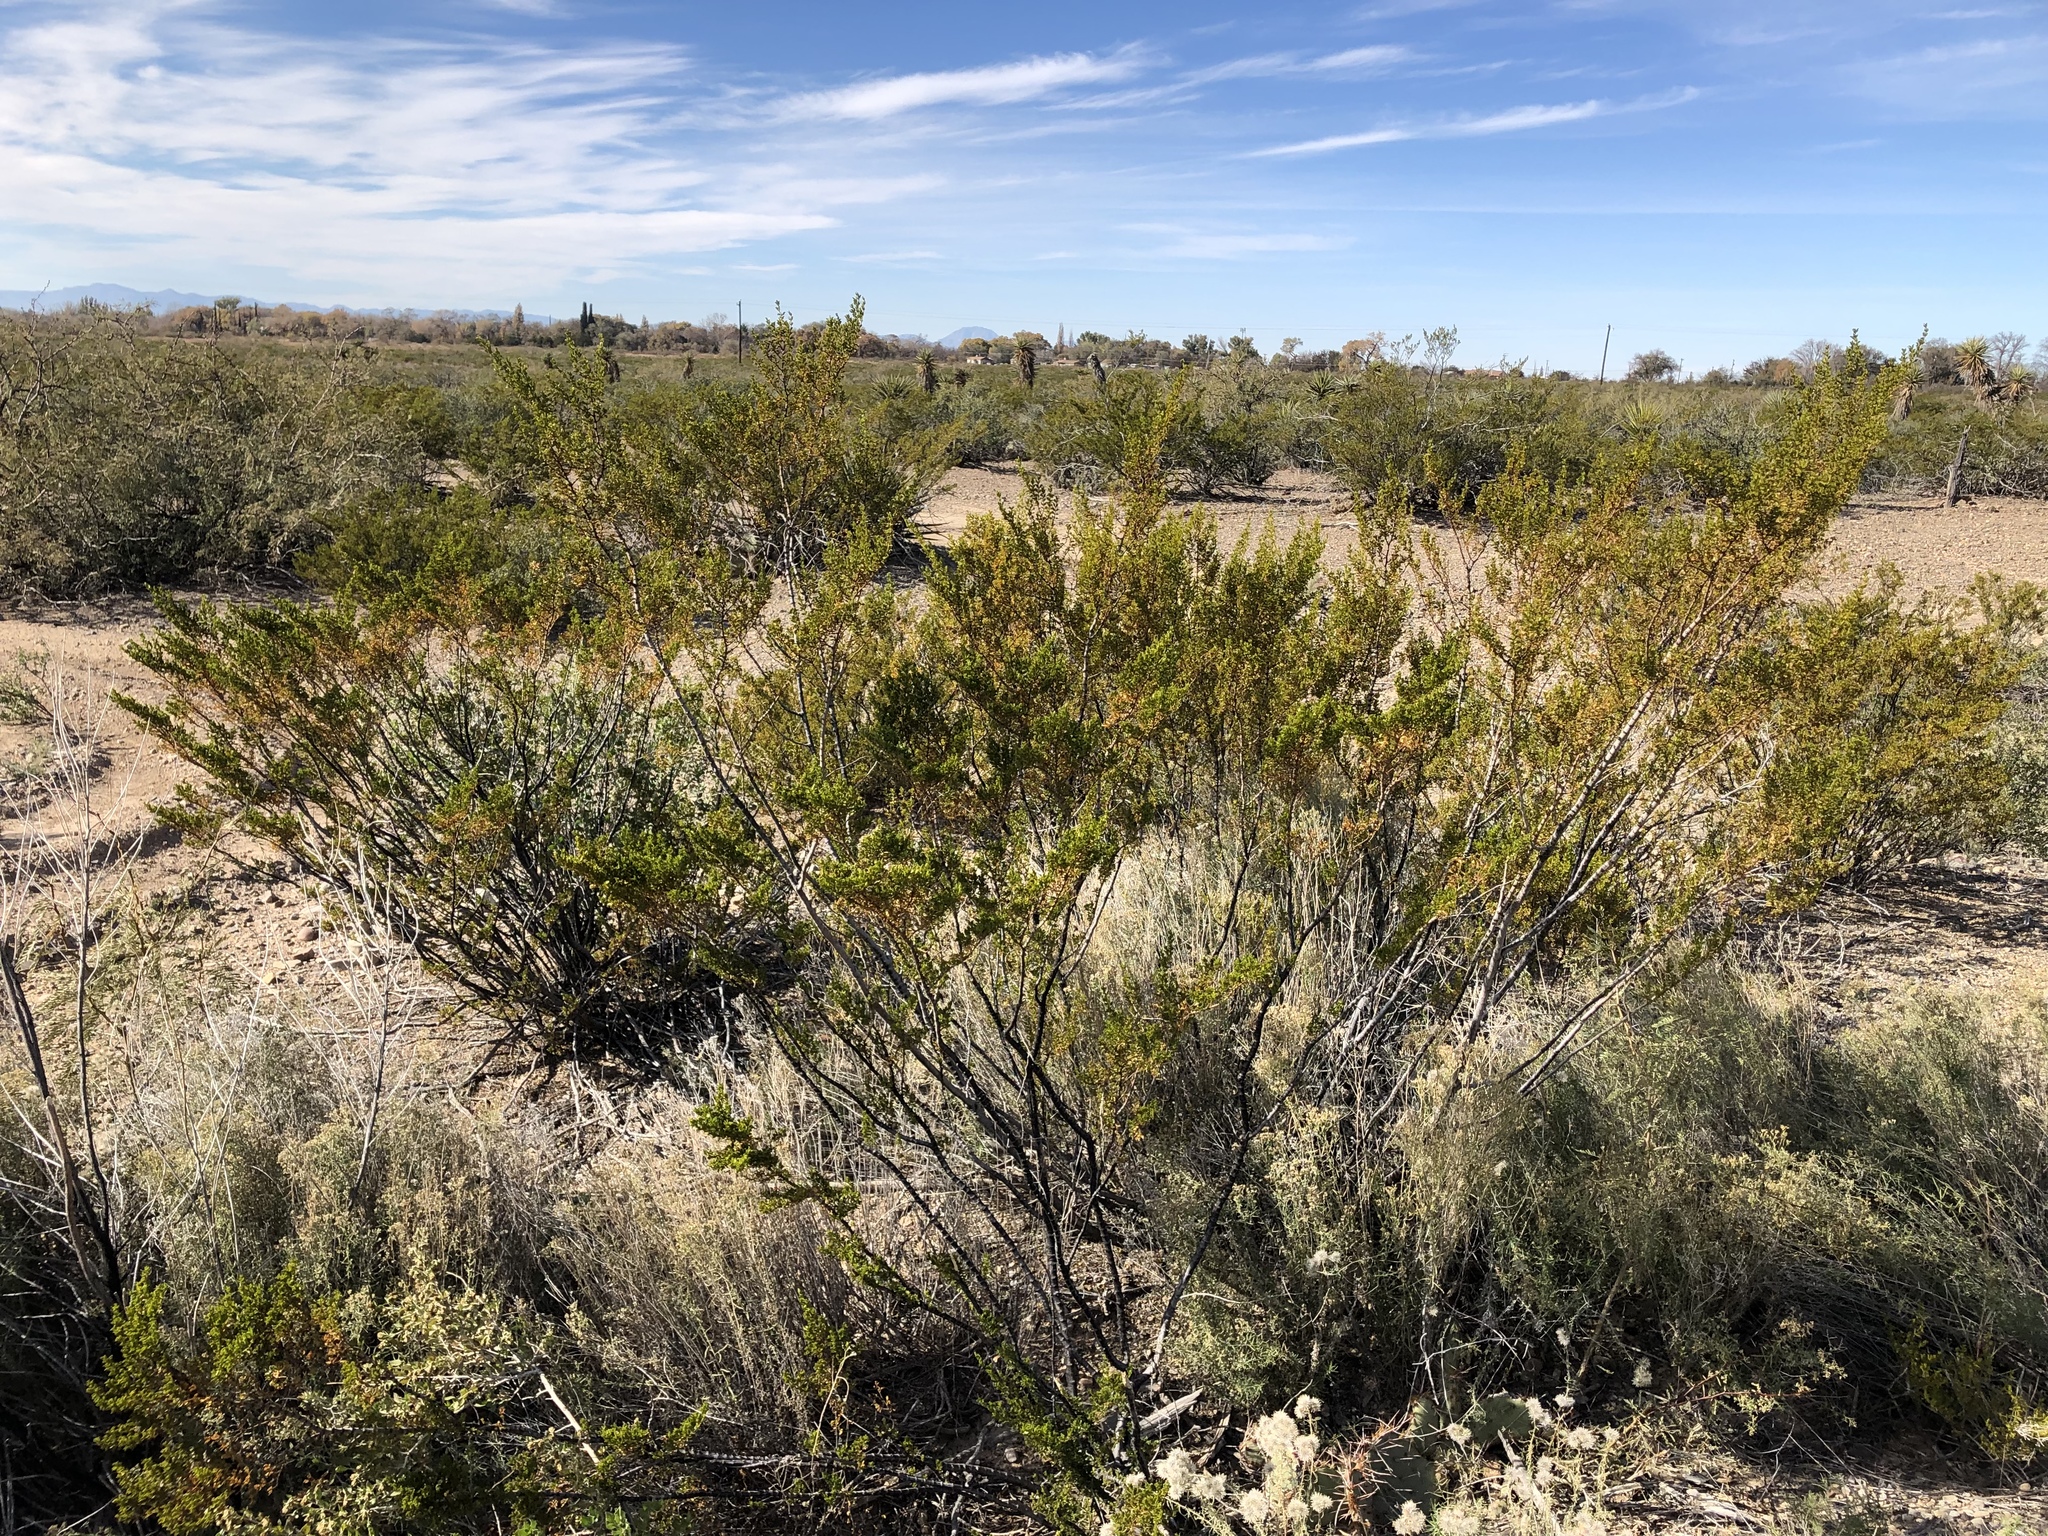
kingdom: Plantae
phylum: Tracheophyta
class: Magnoliopsida
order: Zygophyllales
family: Zygophyllaceae
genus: Larrea
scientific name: Larrea tridentata
